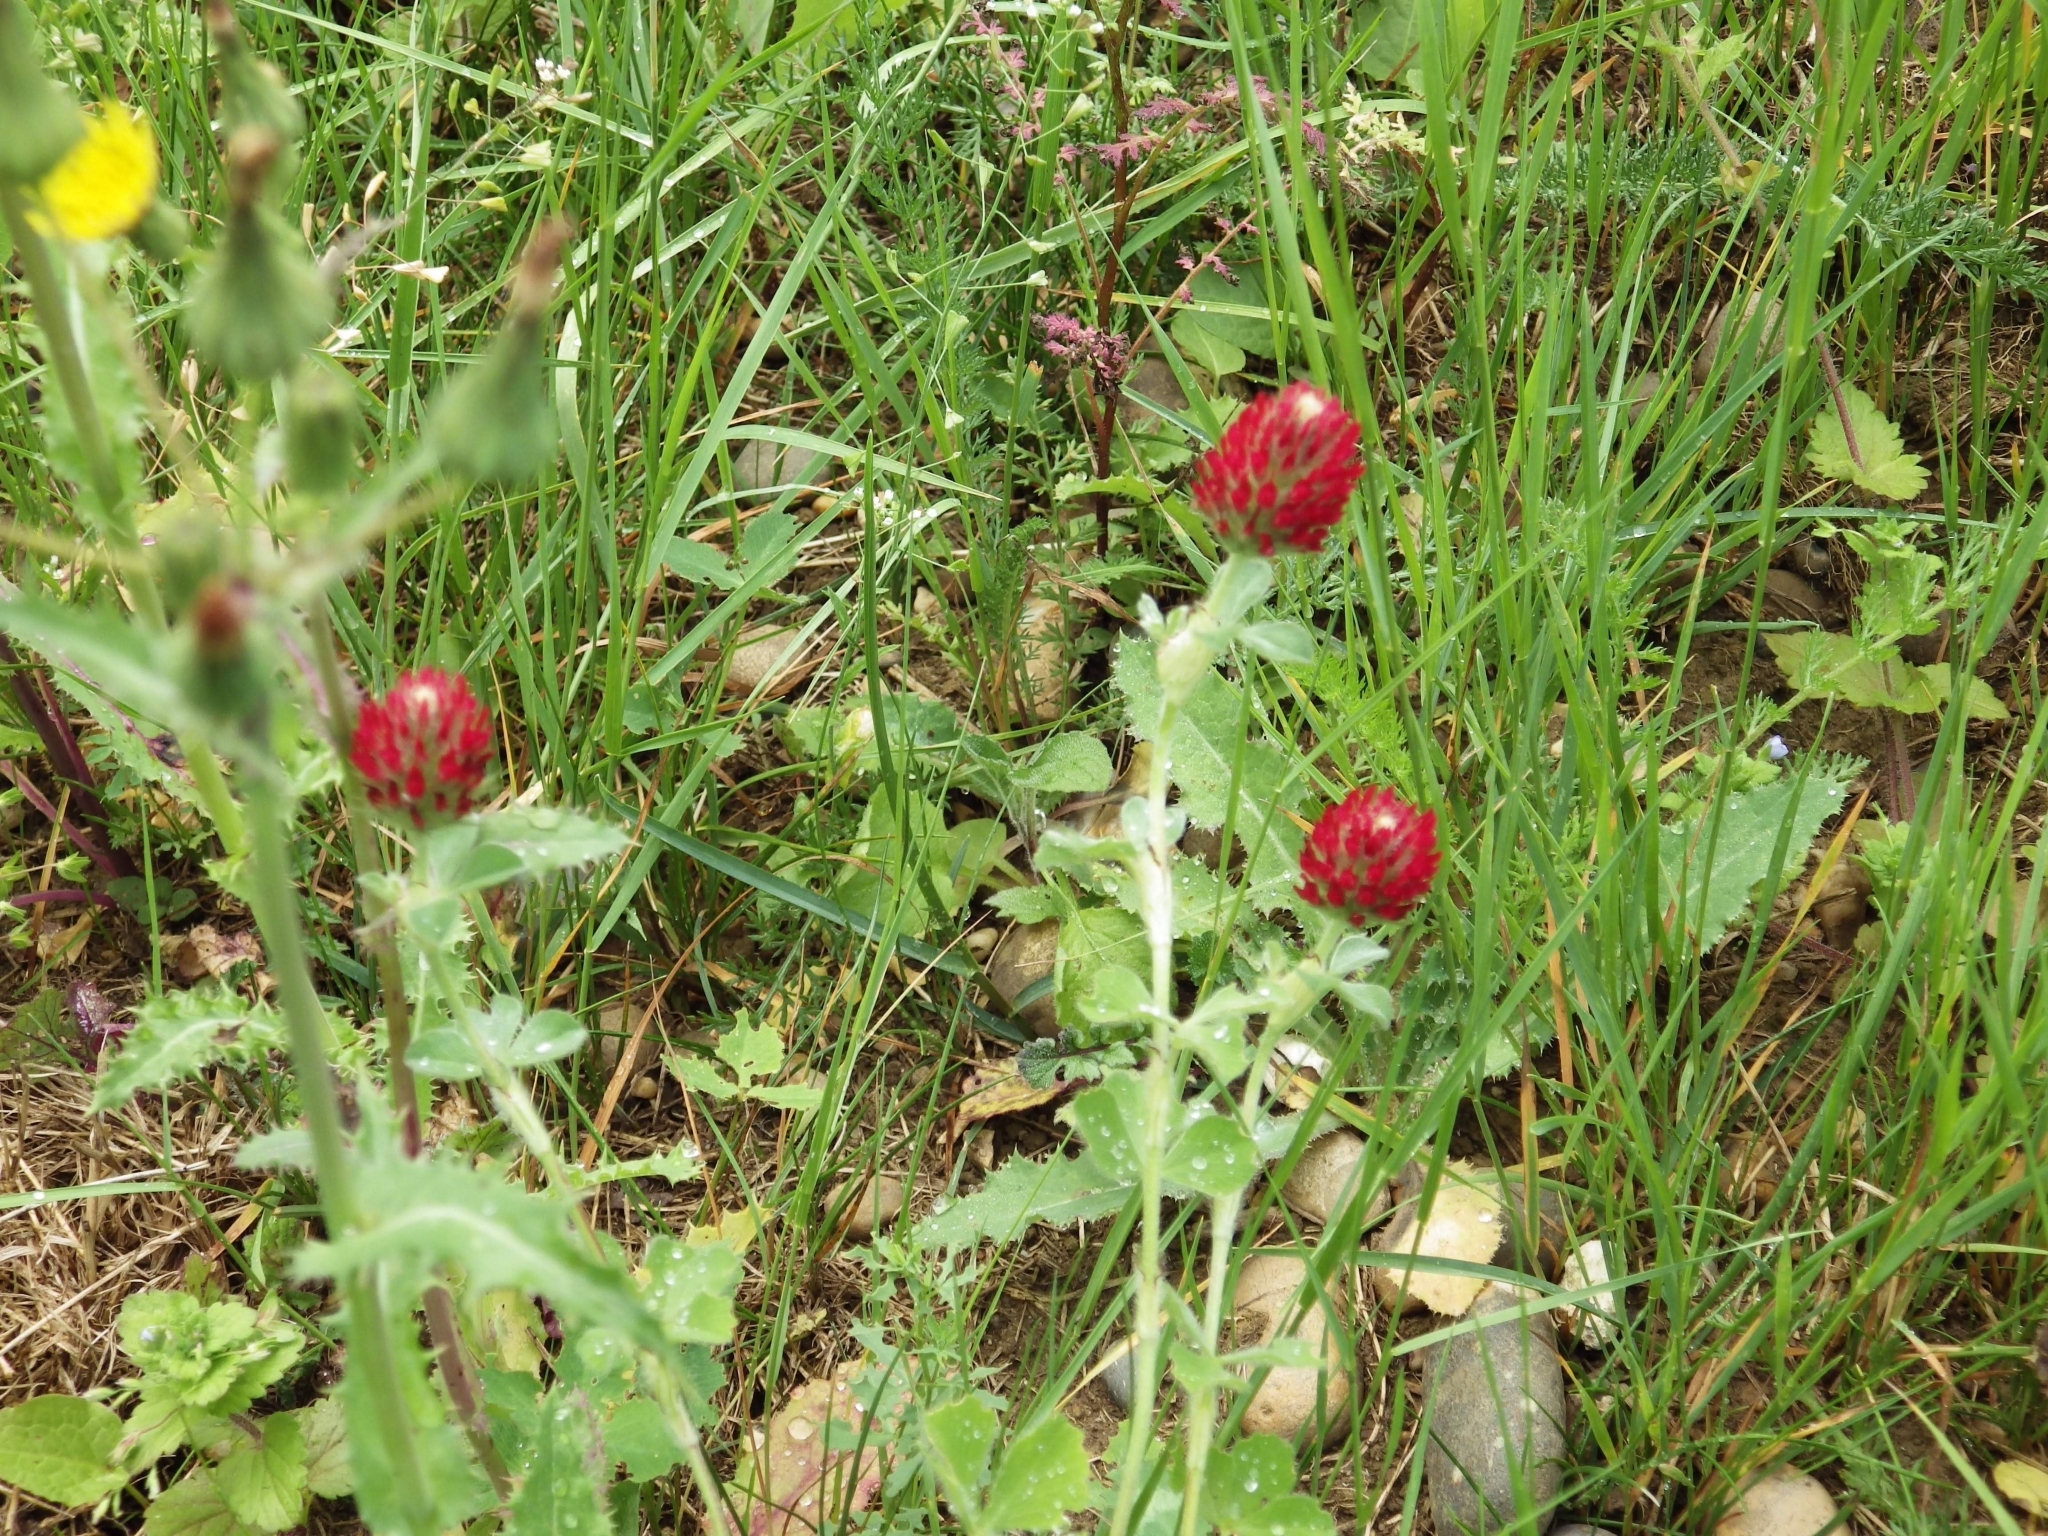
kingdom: Plantae
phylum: Tracheophyta
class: Magnoliopsida
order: Fabales
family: Fabaceae
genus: Trifolium
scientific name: Trifolium incarnatum
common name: Crimson clover
